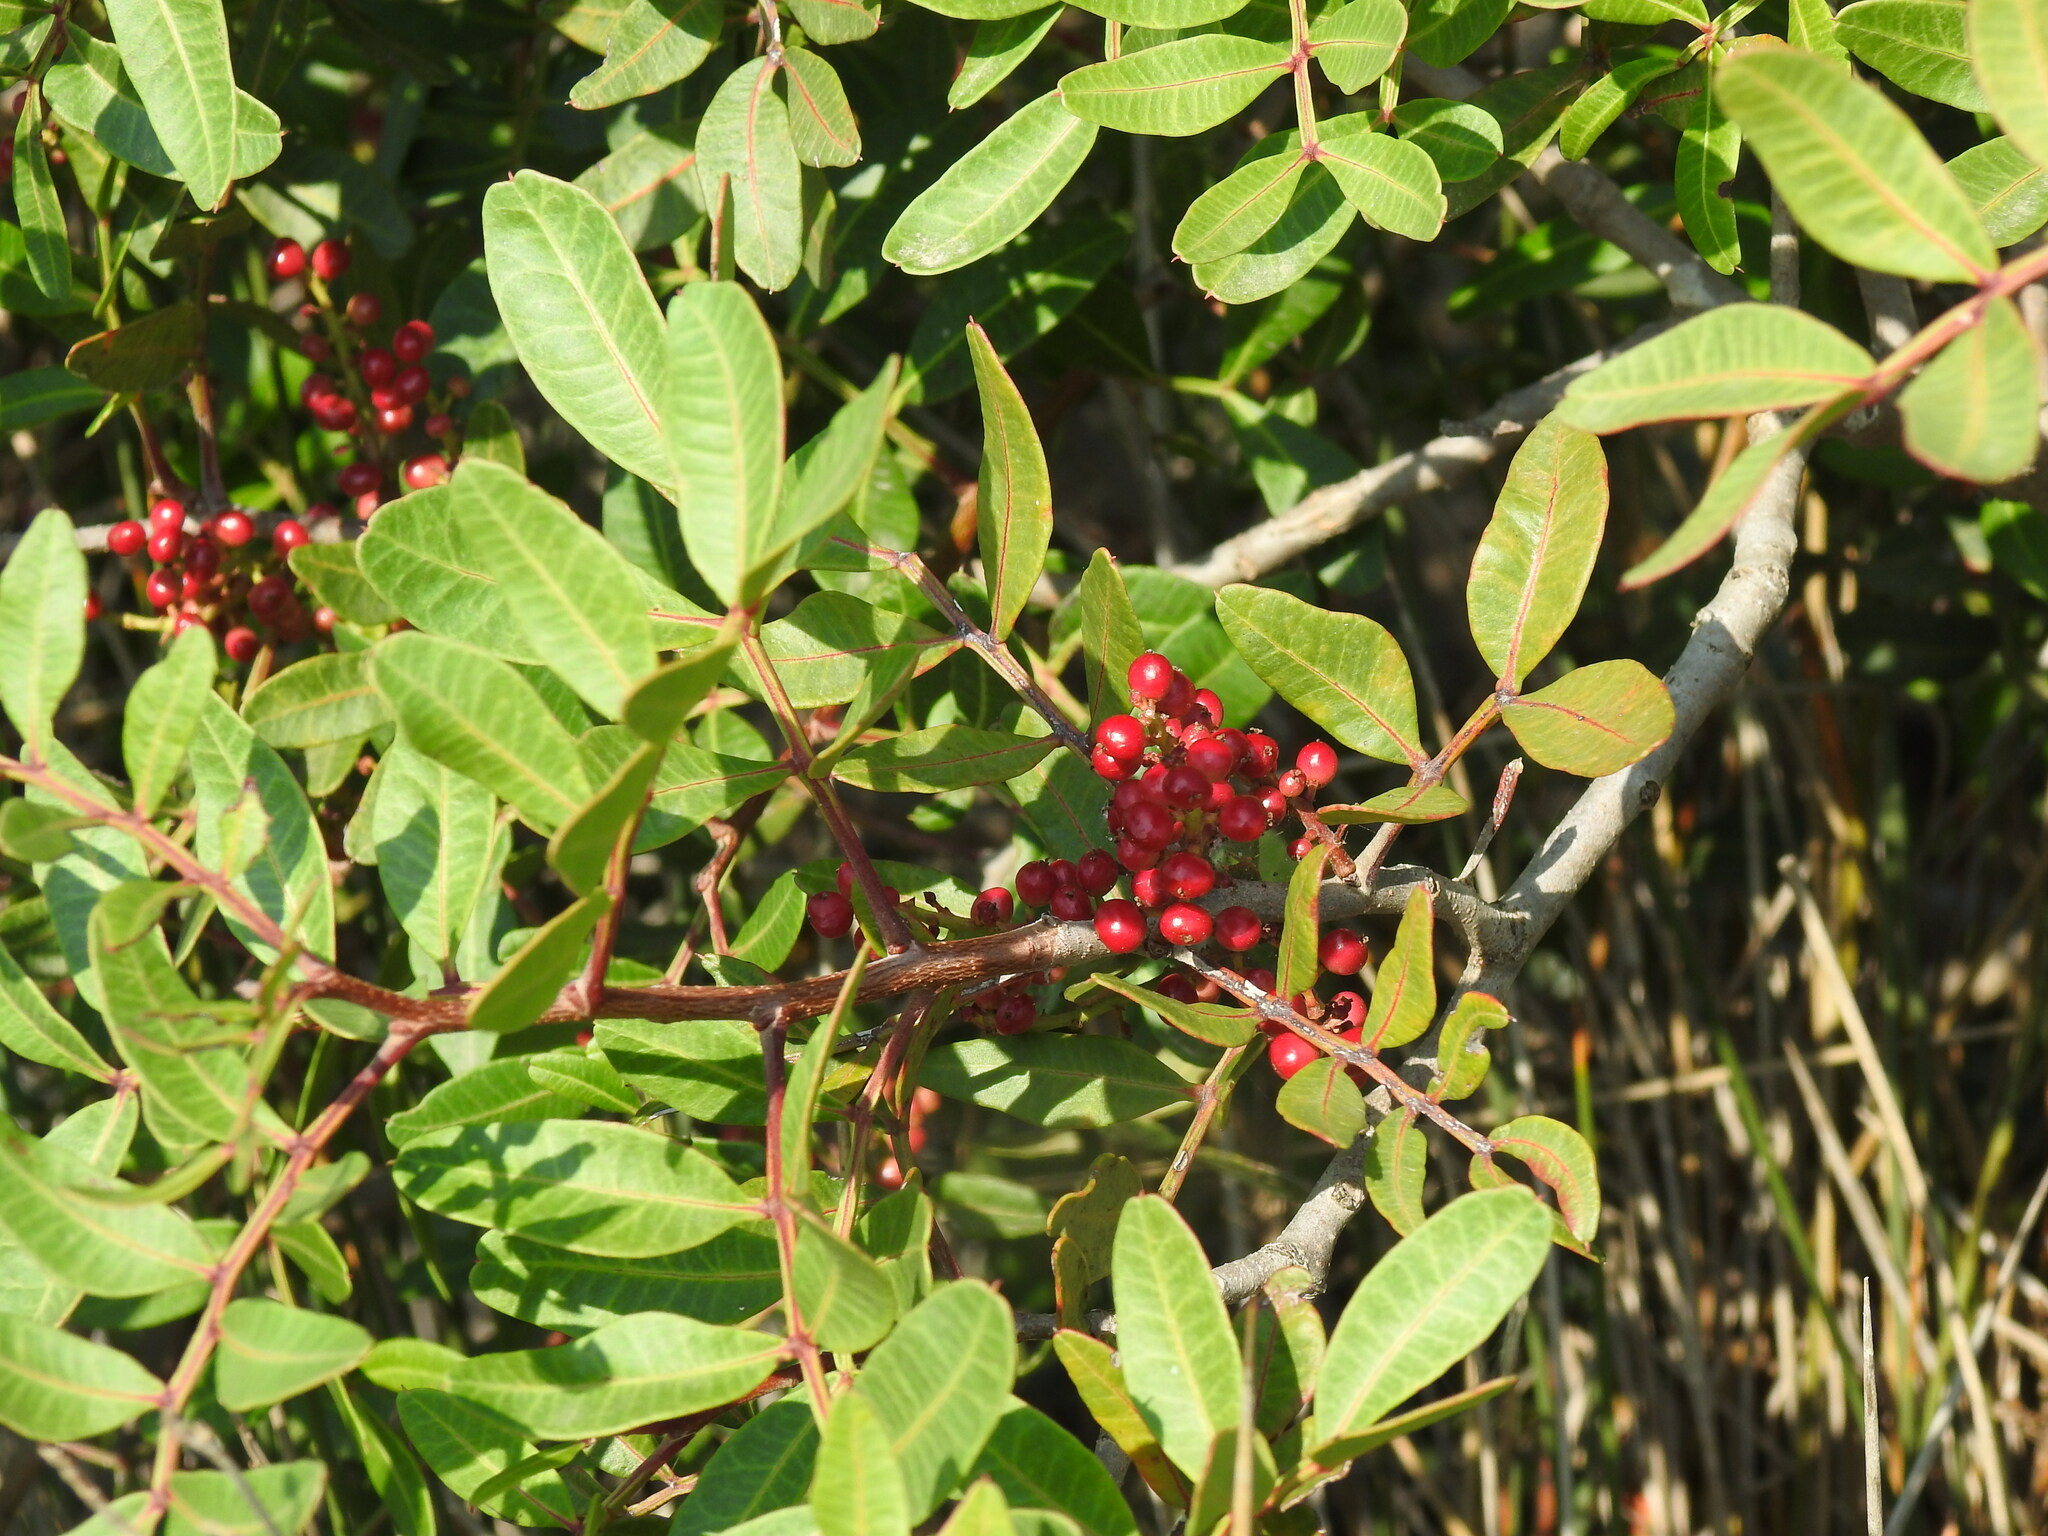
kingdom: Plantae
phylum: Tracheophyta
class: Magnoliopsida
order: Sapindales
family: Anacardiaceae
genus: Pistacia
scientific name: Pistacia lentiscus
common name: Lentisk
